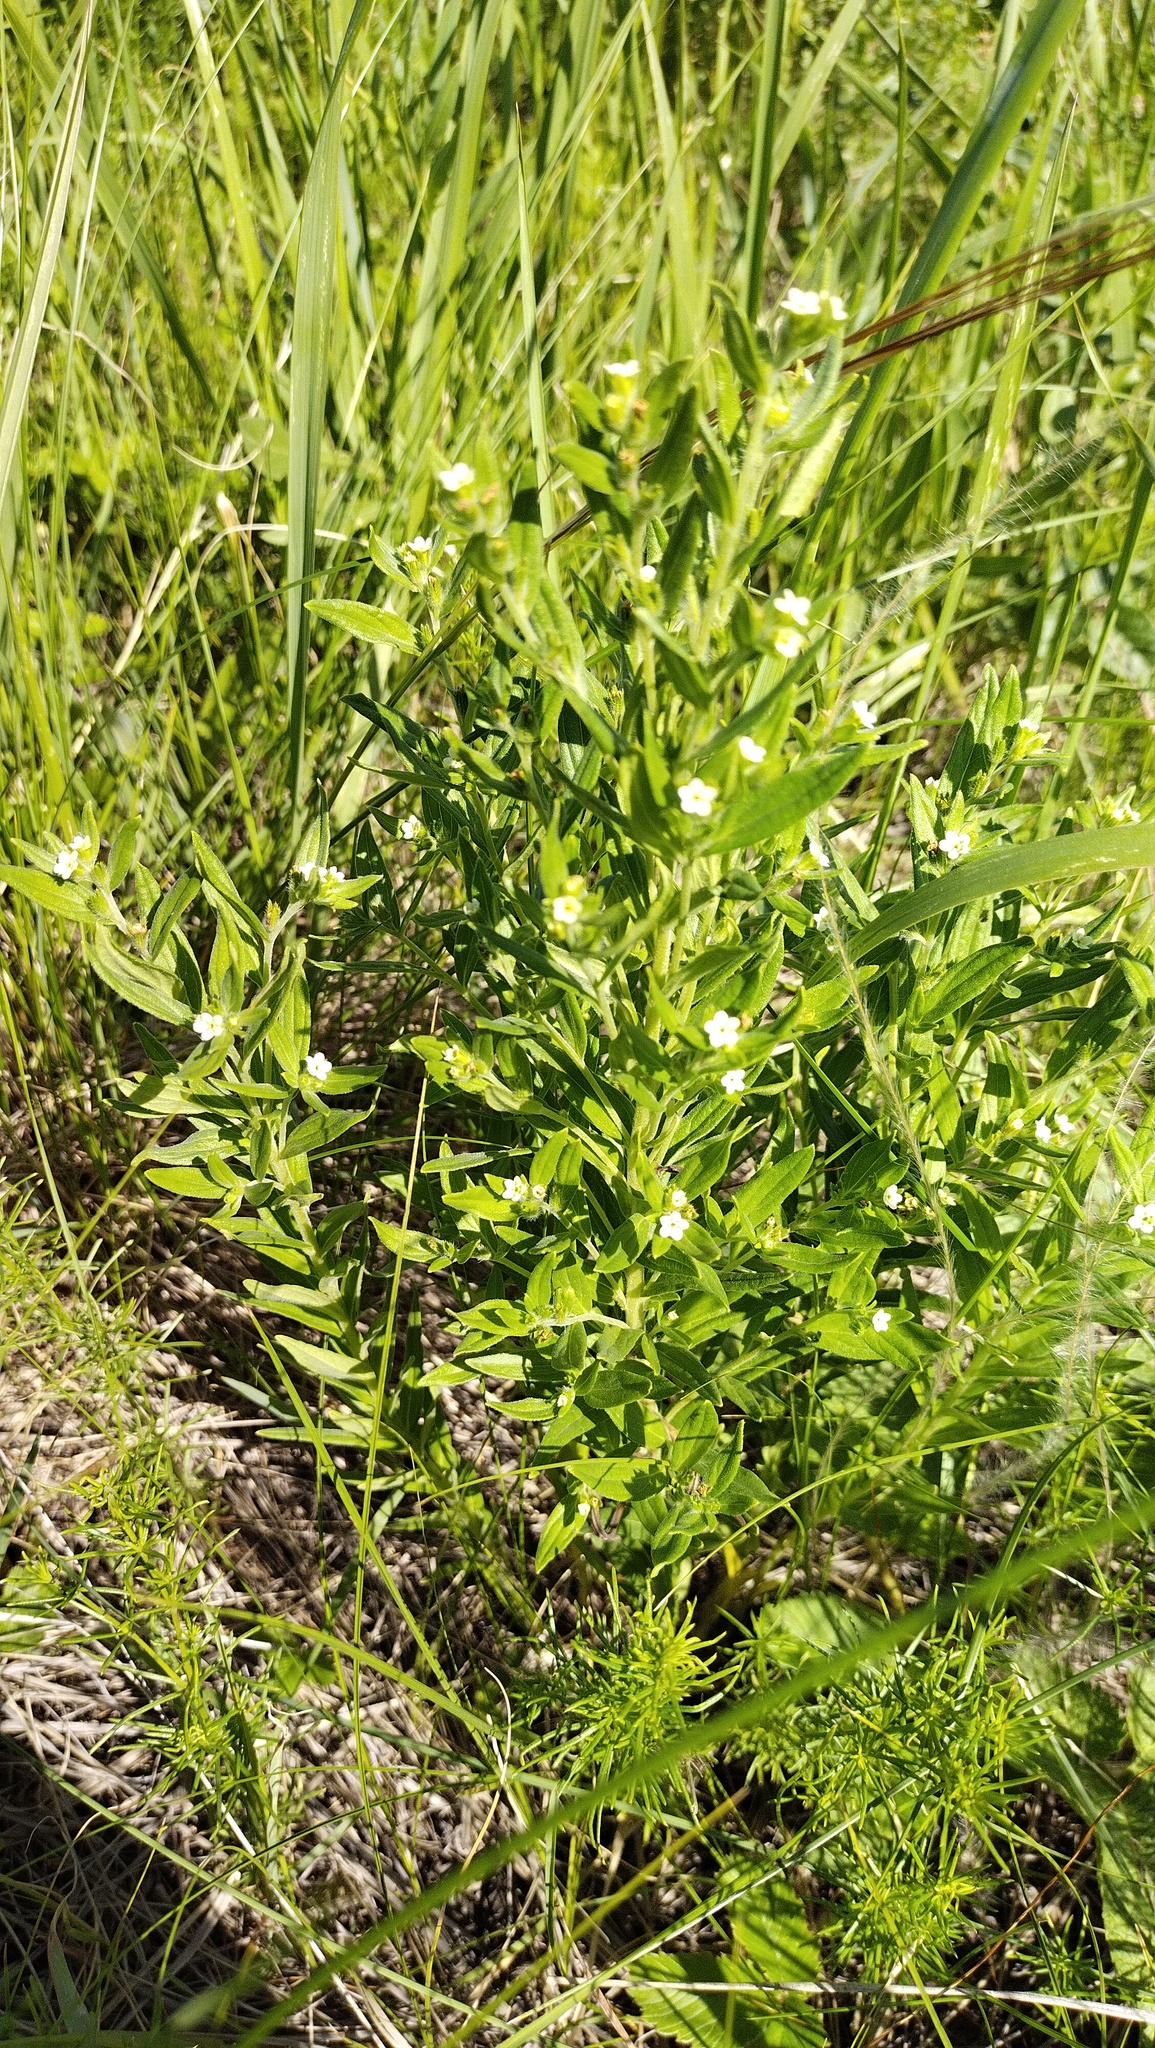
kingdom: Plantae
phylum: Tracheophyta
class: Magnoliopsida
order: Boraginales
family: Boraginaceae
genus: Lithospermum
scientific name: Lithospermum officinale
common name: Common gromwell
